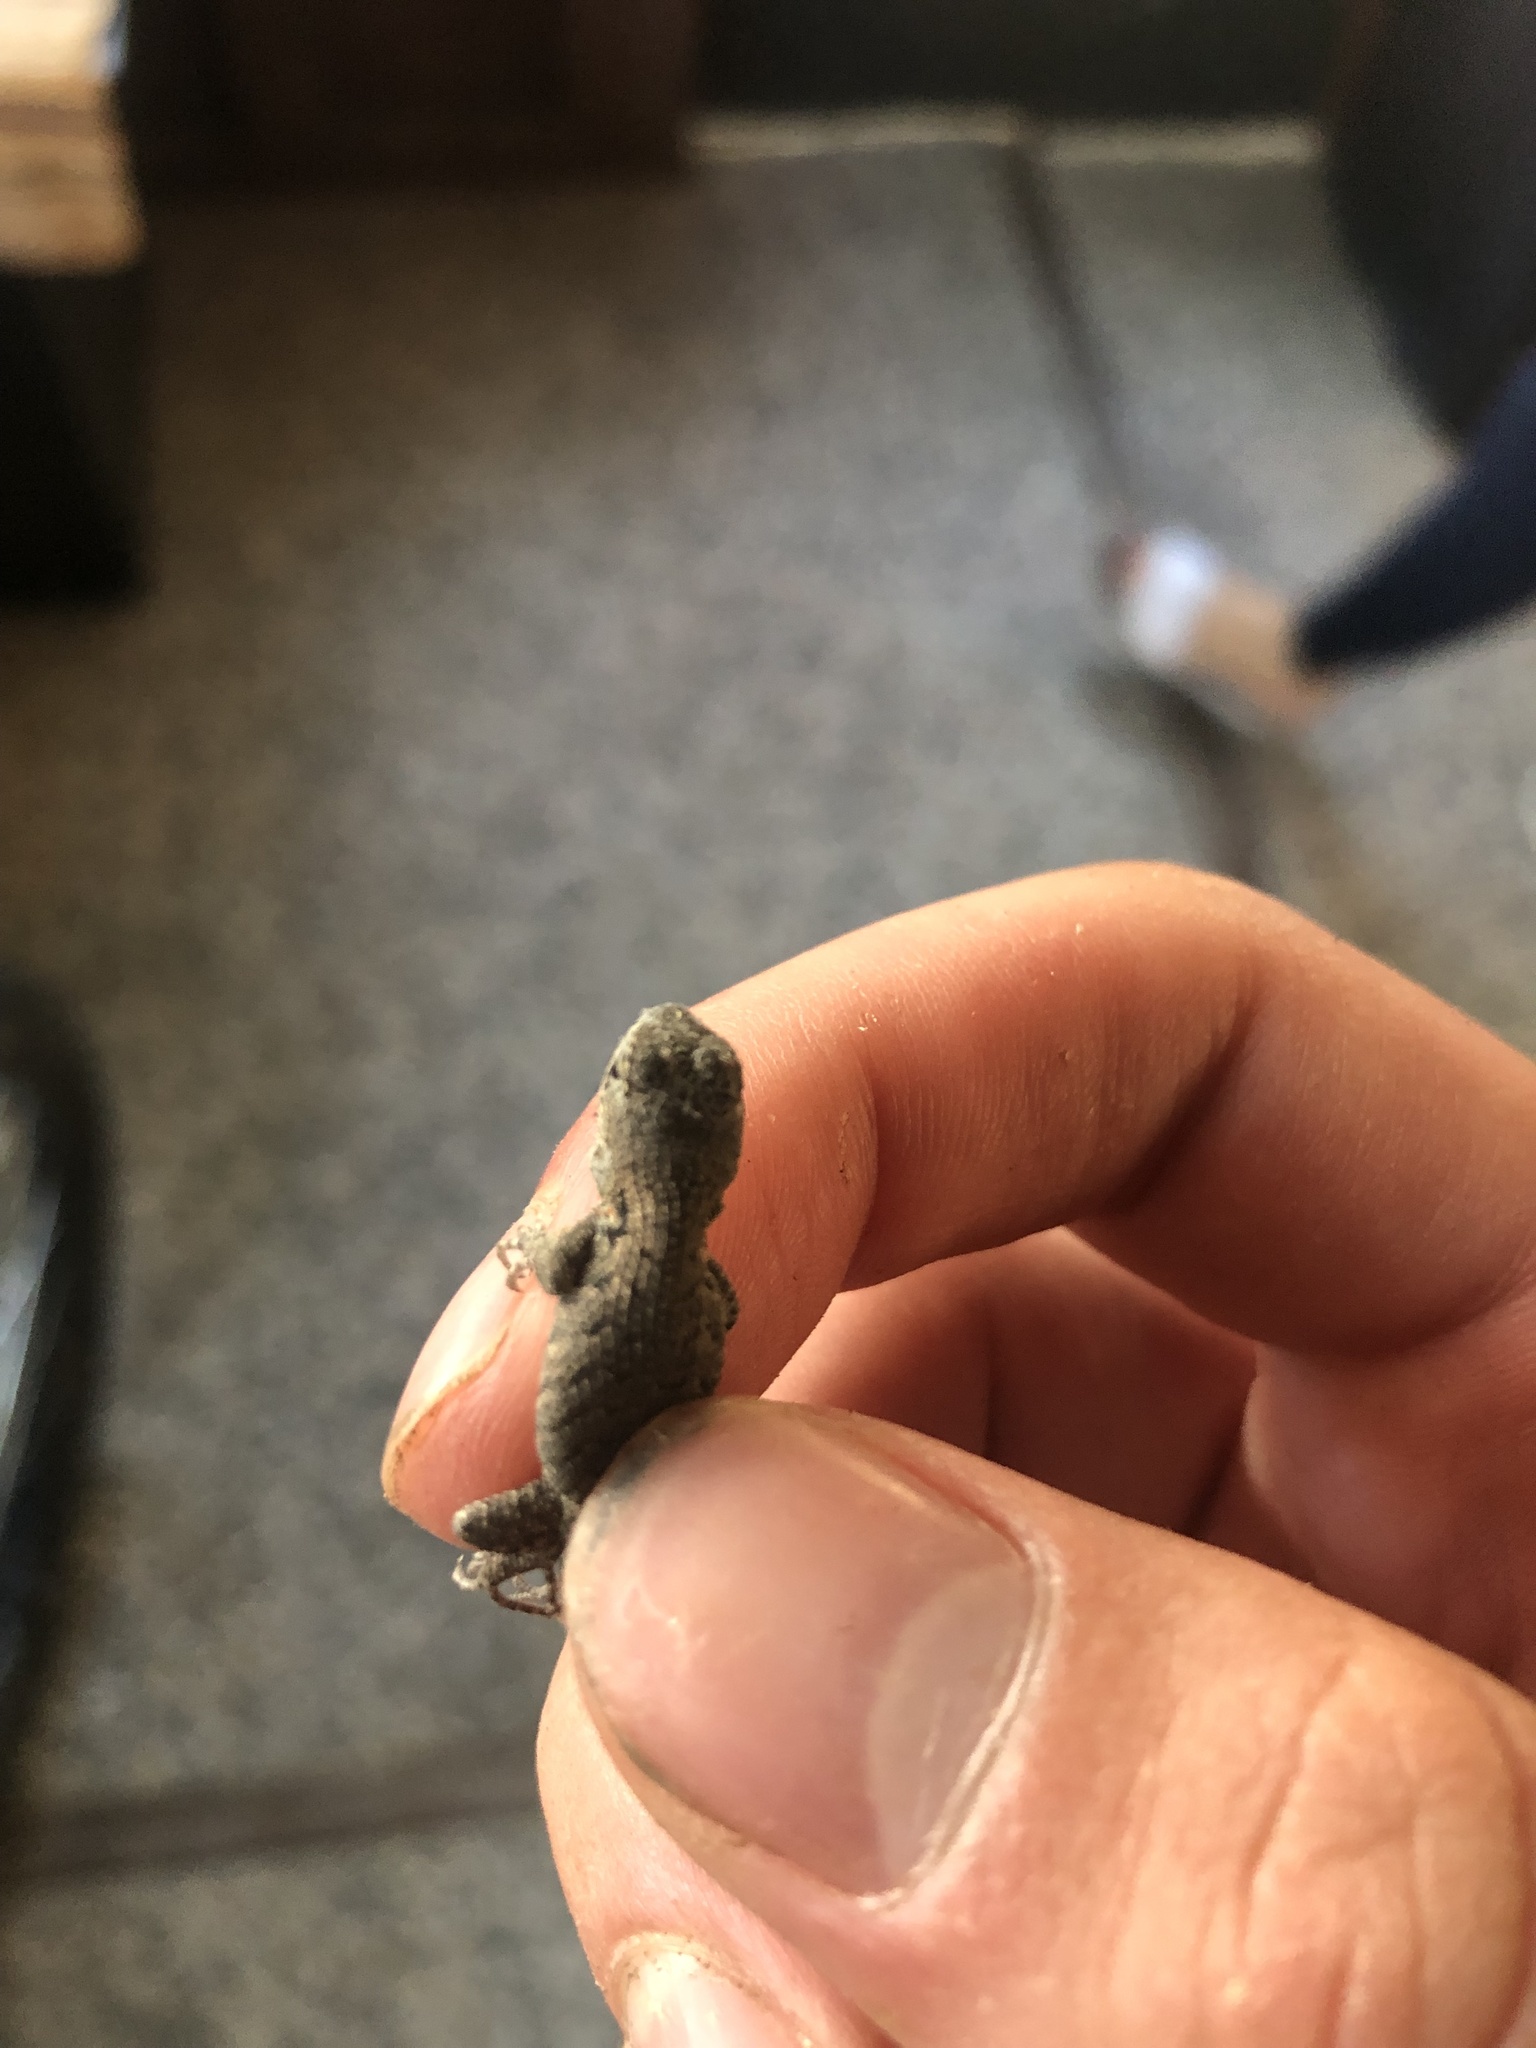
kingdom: Animalia
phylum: Chordata
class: Squamata
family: Phrynosomatidae
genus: Sceloporus
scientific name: Sceloporus occidentalis
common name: Western fence lizard
